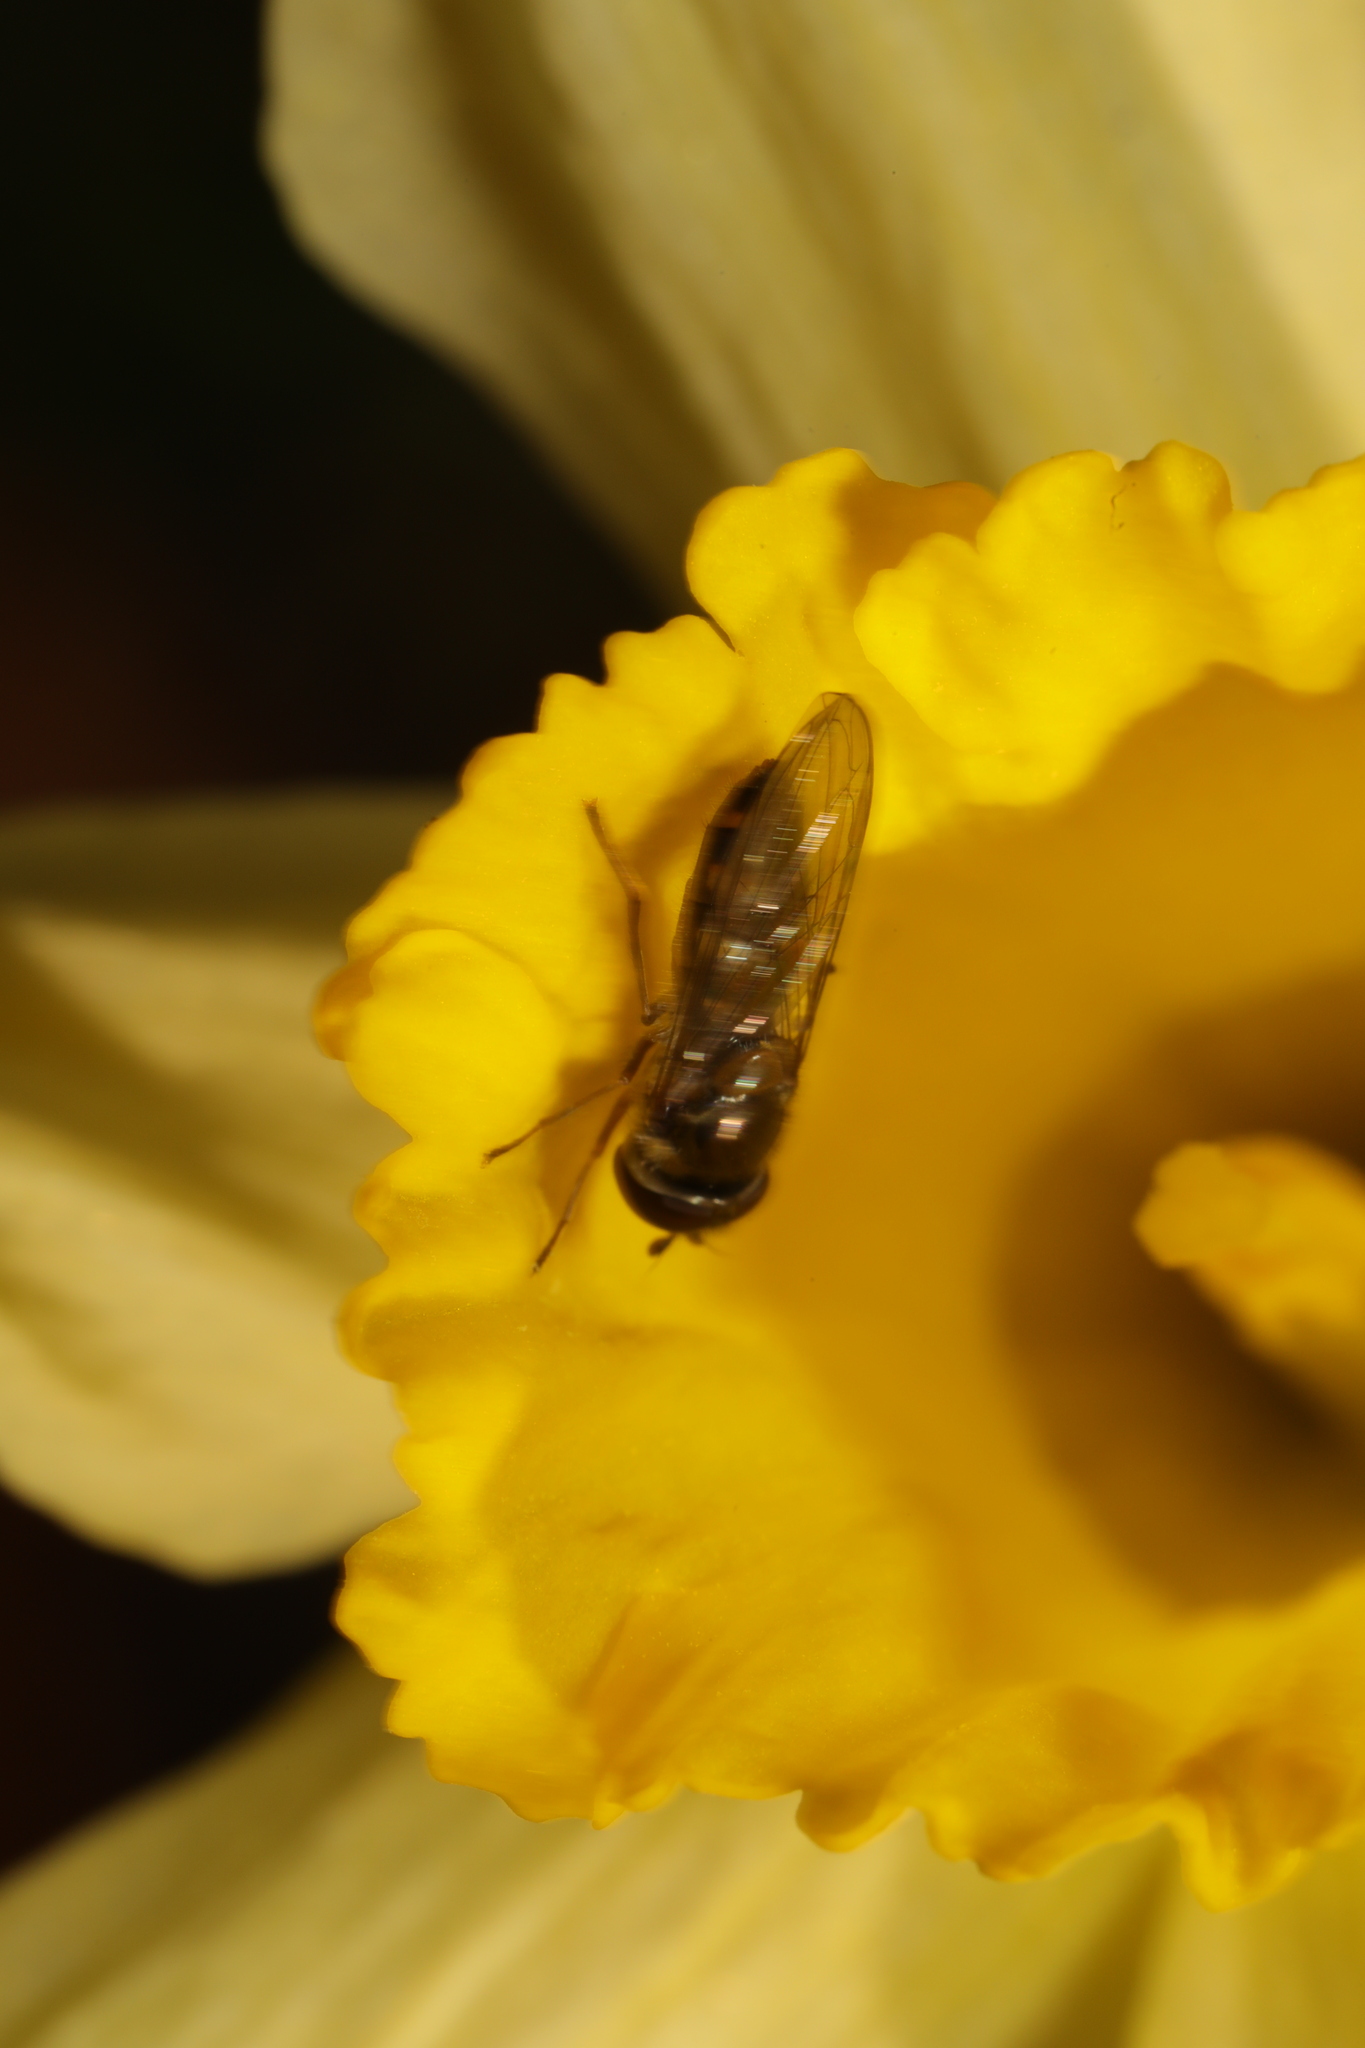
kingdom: Animalia
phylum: Arthropoda
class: Insecta
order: Diptera
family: Syrphidae
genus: Meliscaeva
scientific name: Meliscaeva auricollis
